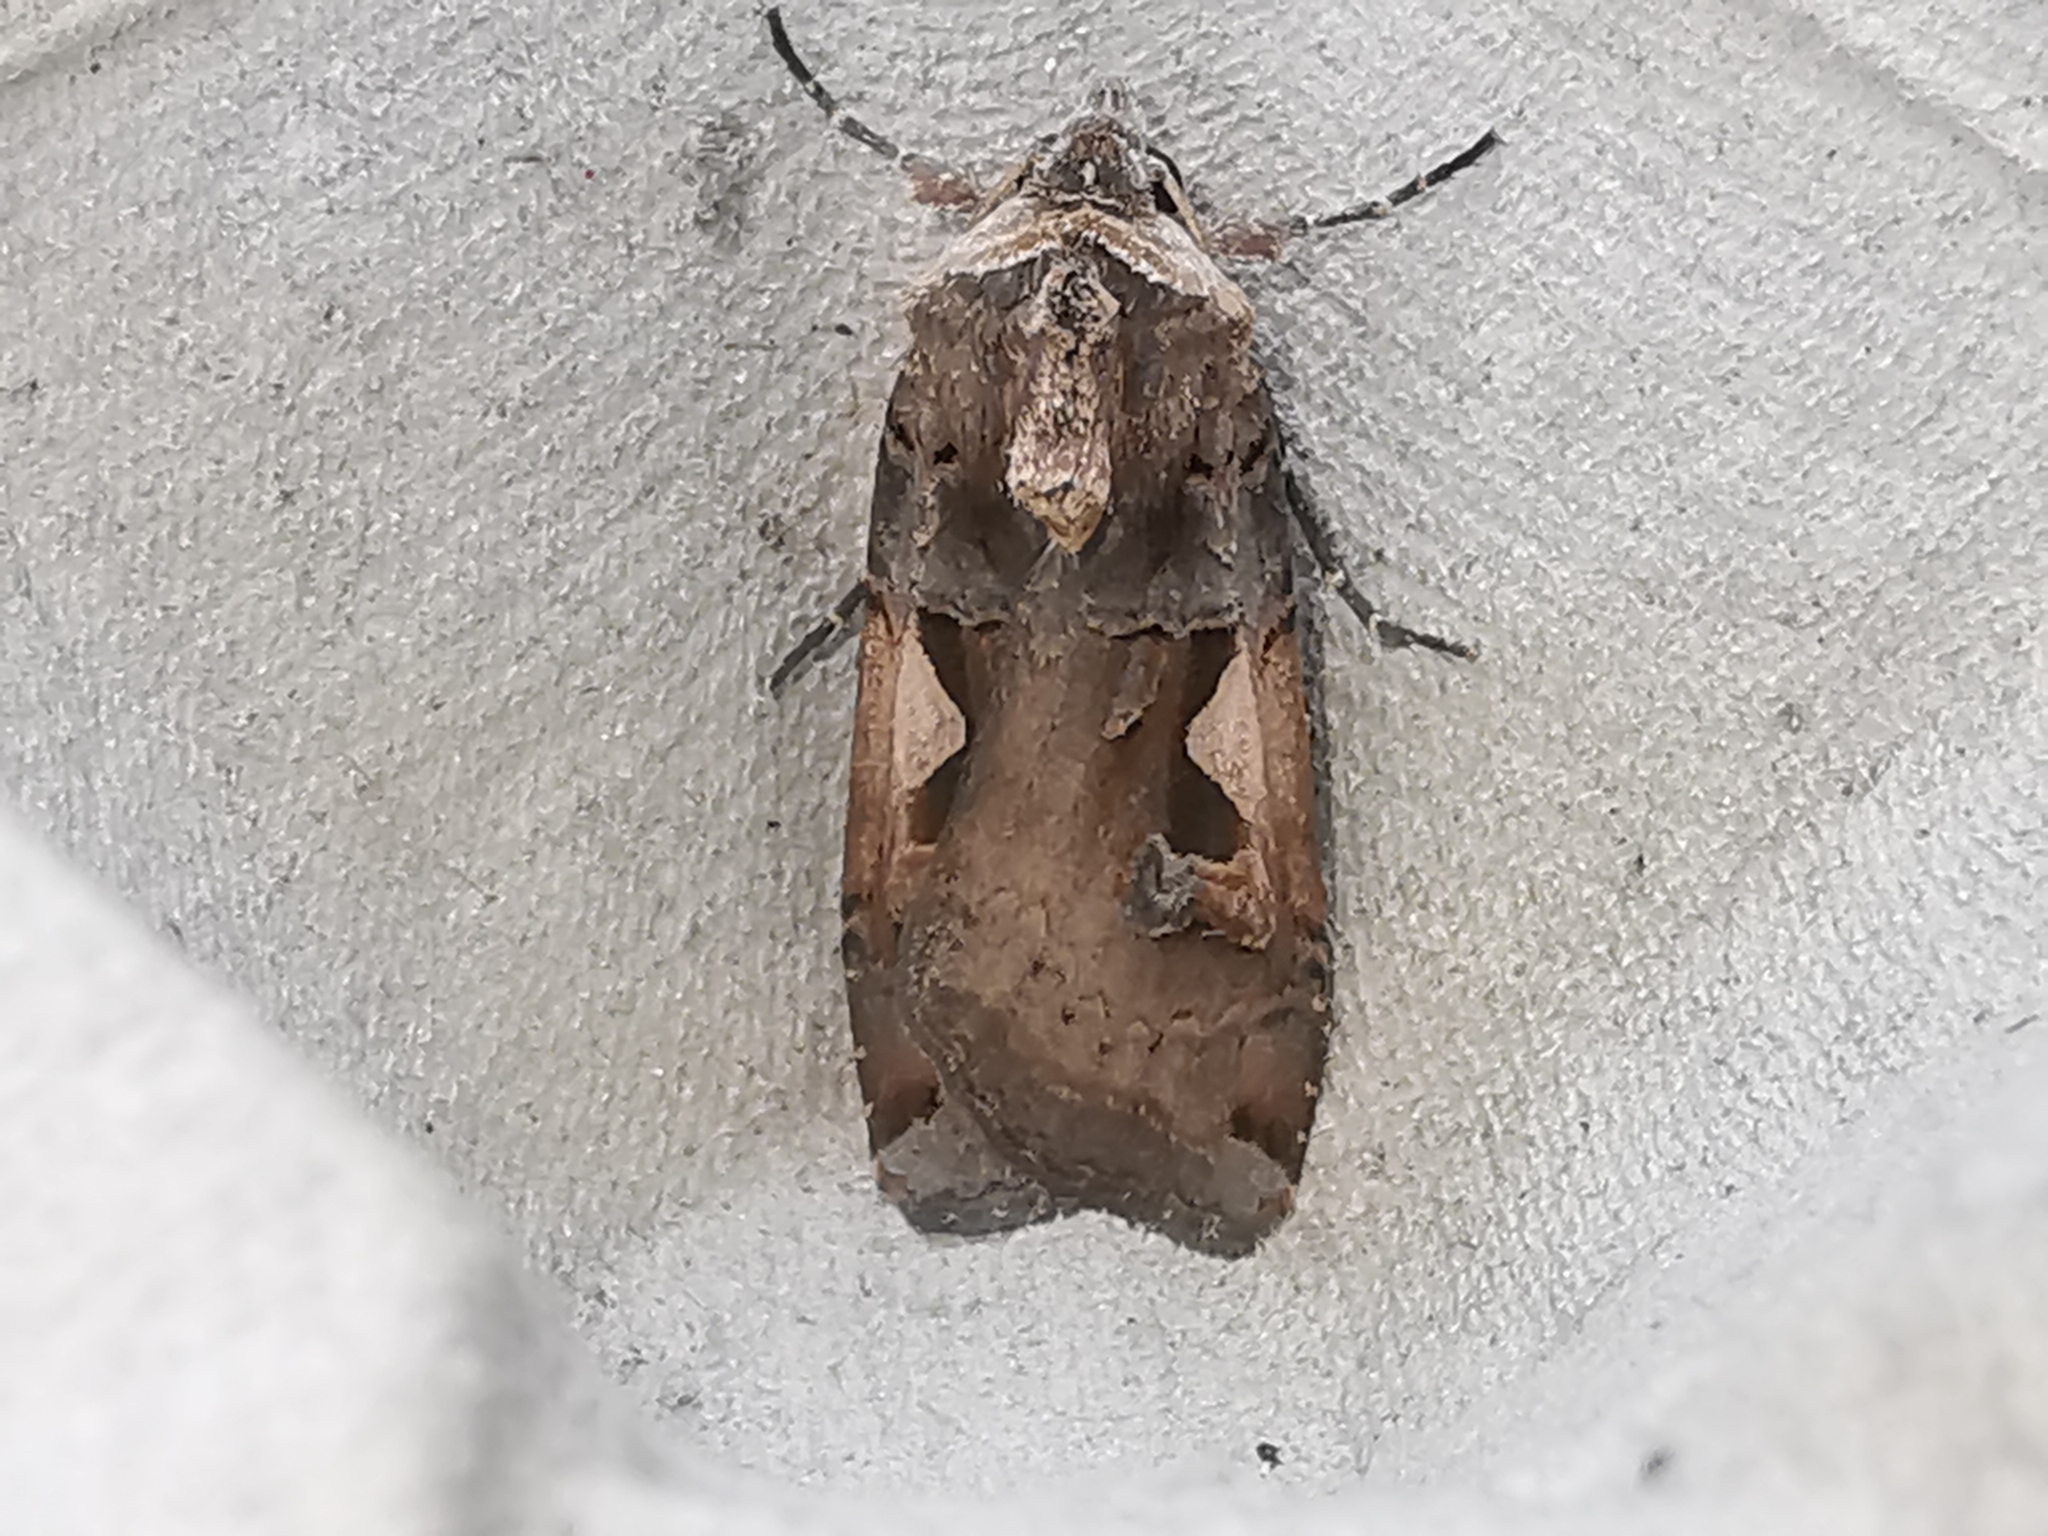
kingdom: Animalia
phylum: Arthropoda
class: Insecta
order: Lepidoptera
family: Noctuidae
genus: Xestia
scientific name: Xestia c-nigrum
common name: Setaceous hebrew character
